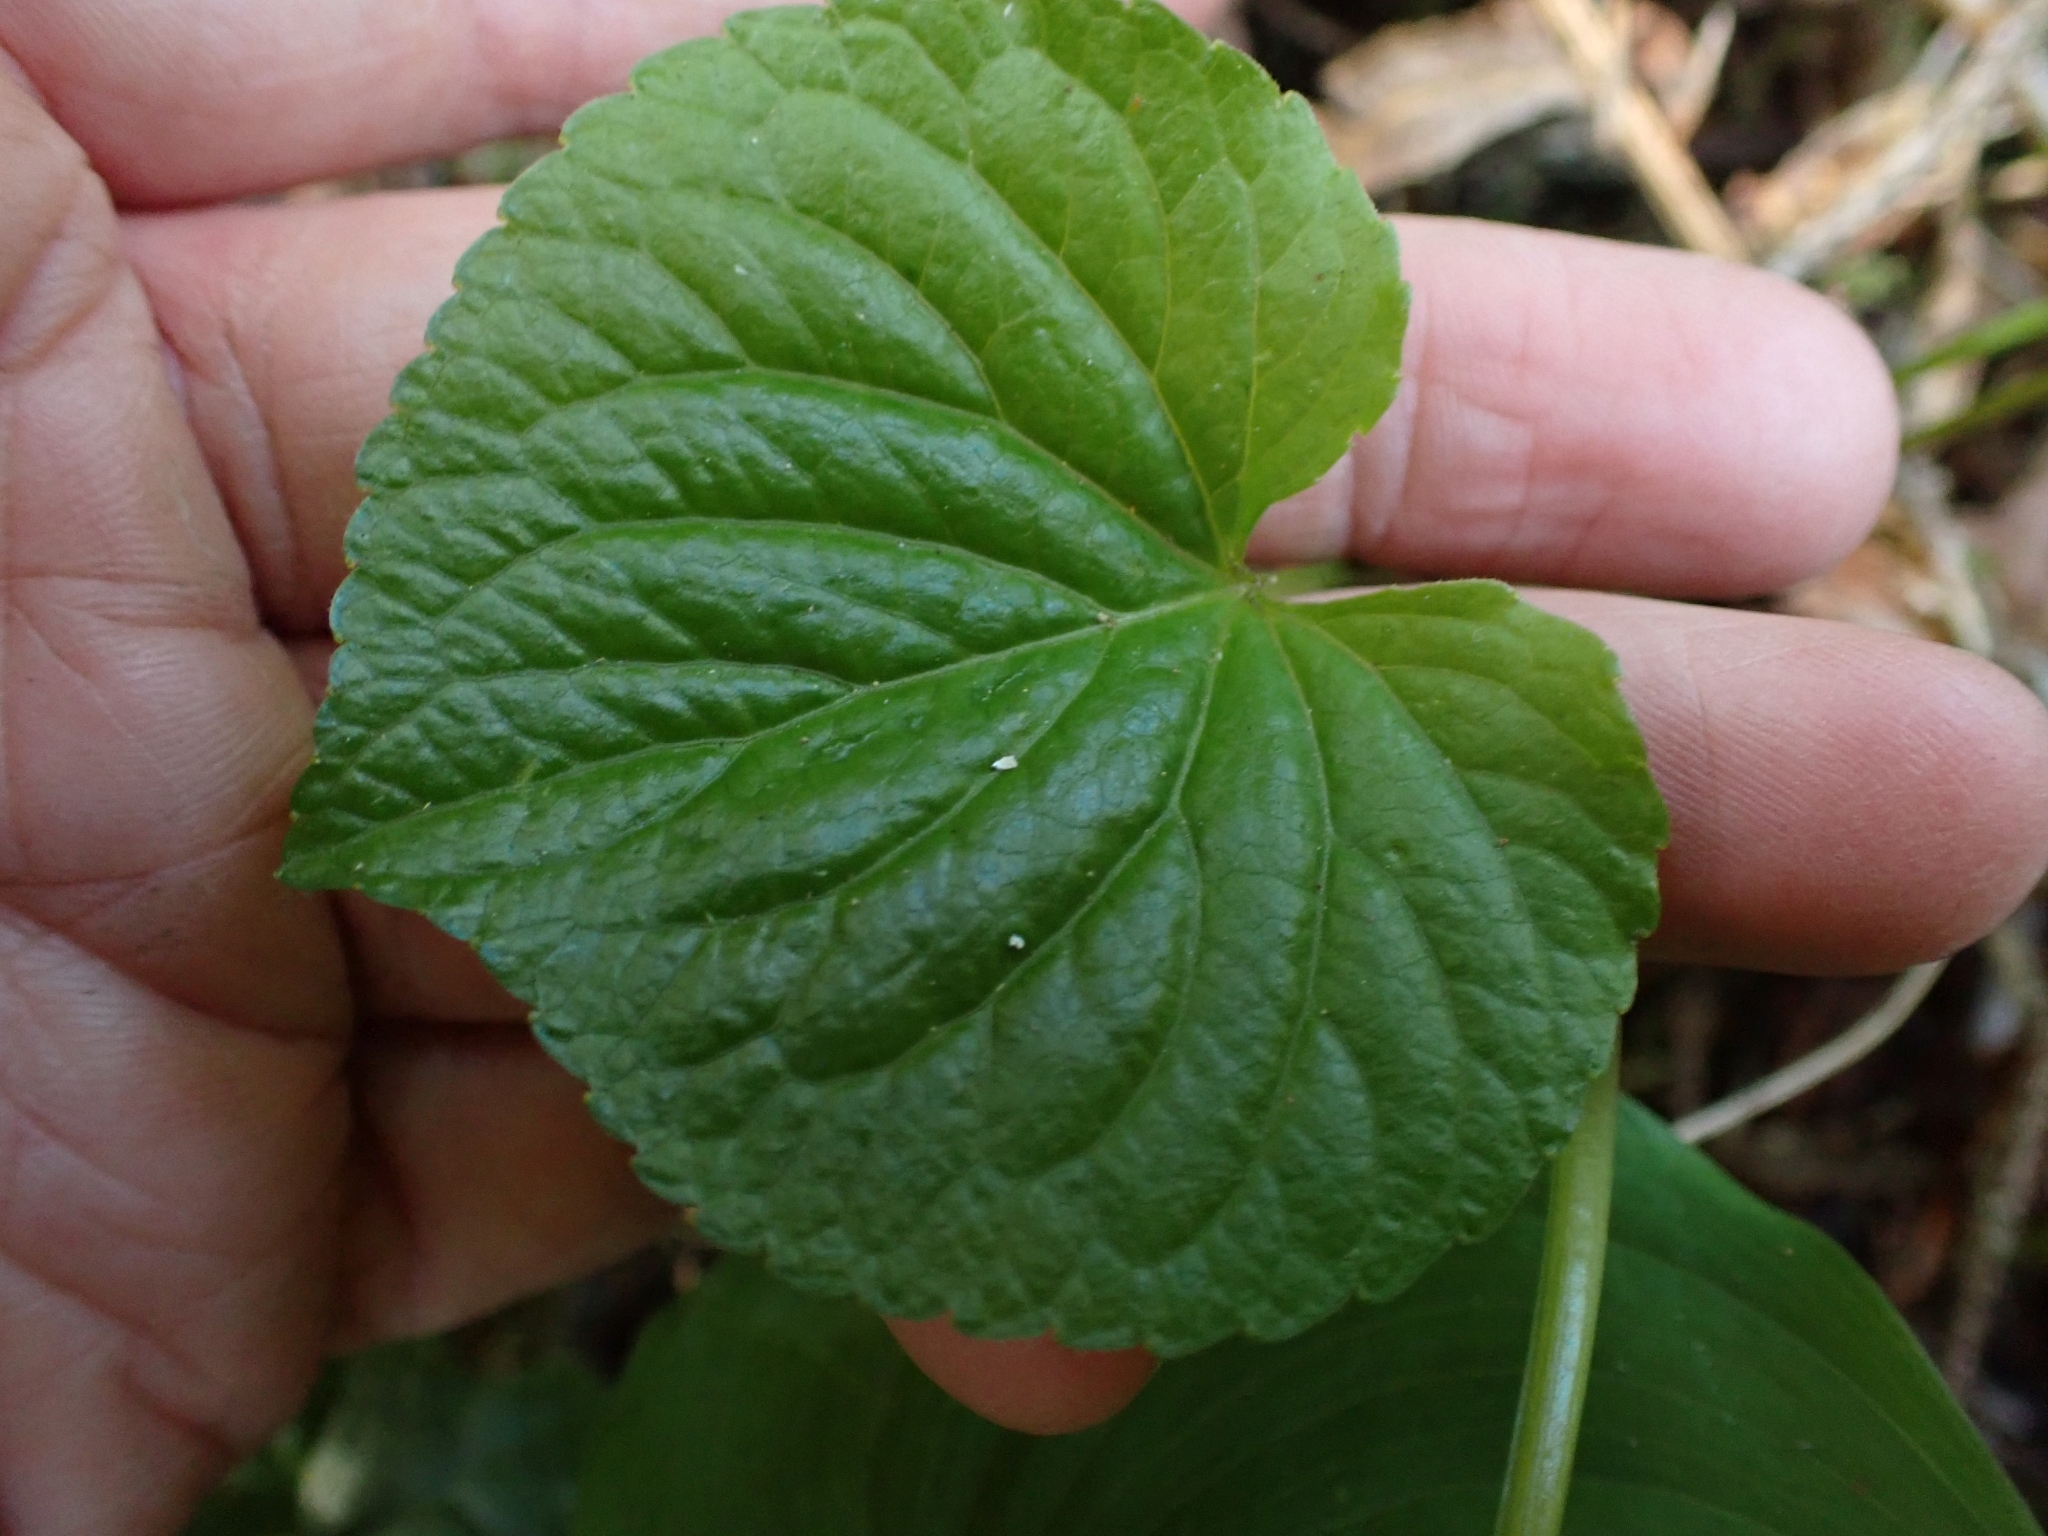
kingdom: Plantae
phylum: Tracheophyta
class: Magnoliopsida
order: Malpighiales
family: Violaceae
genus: Viola
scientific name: Viola glabella
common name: Stream violet
